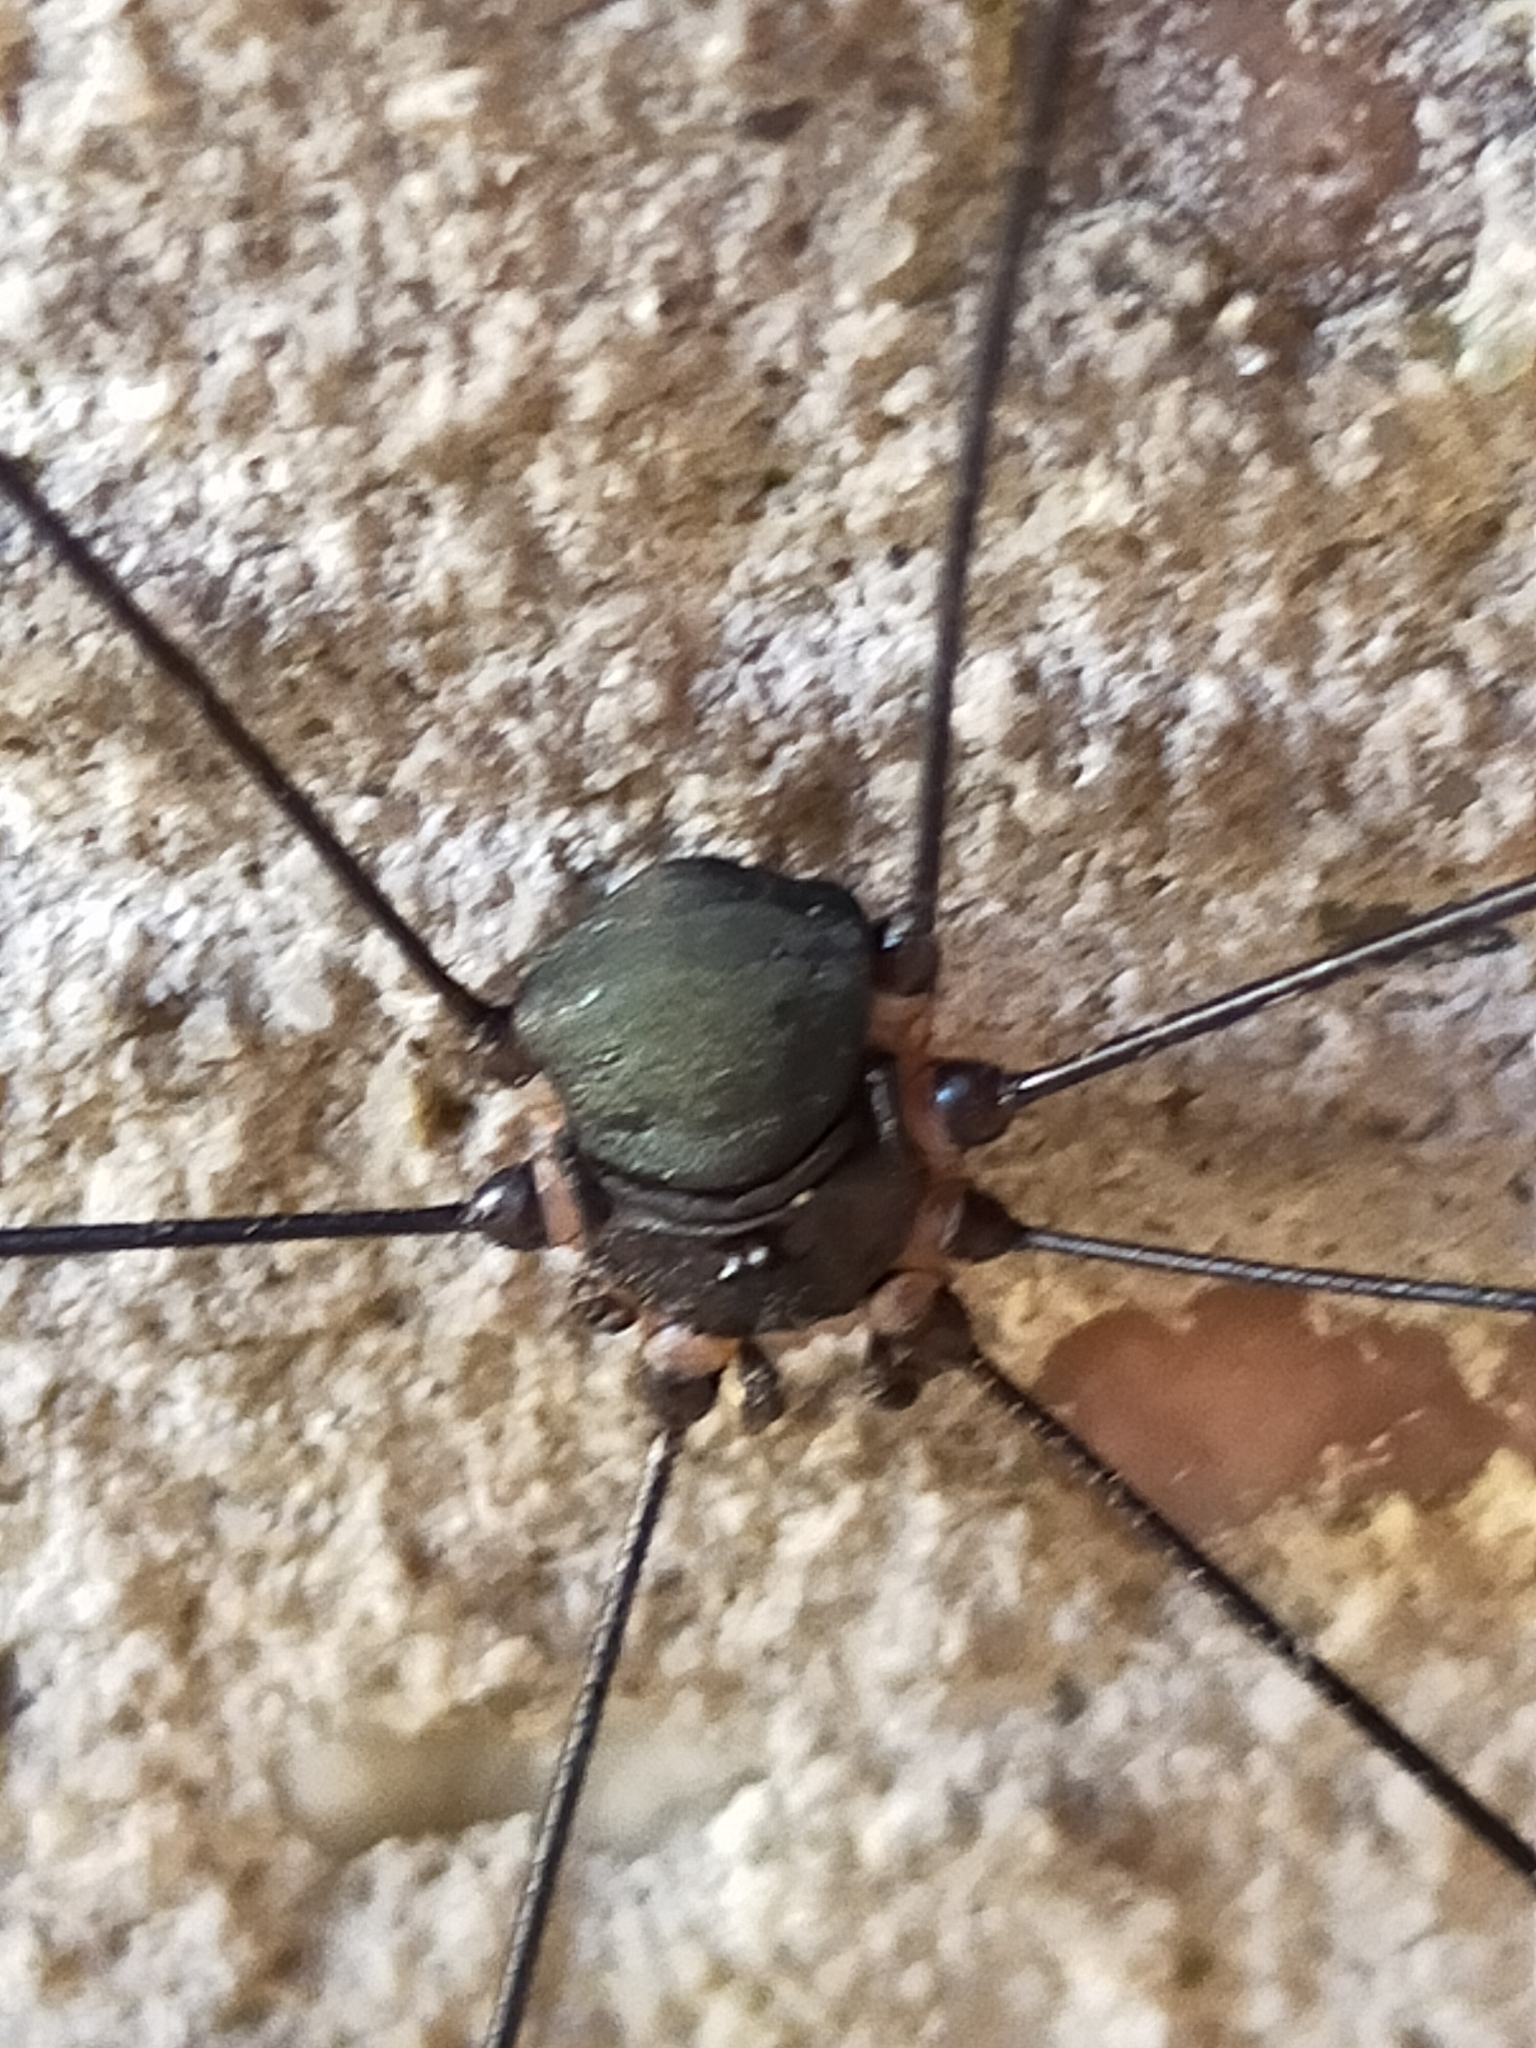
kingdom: Animalia
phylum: Arthropoda
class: Arachnida
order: Opiliones
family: Sclerosomatidae
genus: Leiobunum
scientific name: Leiobunum
